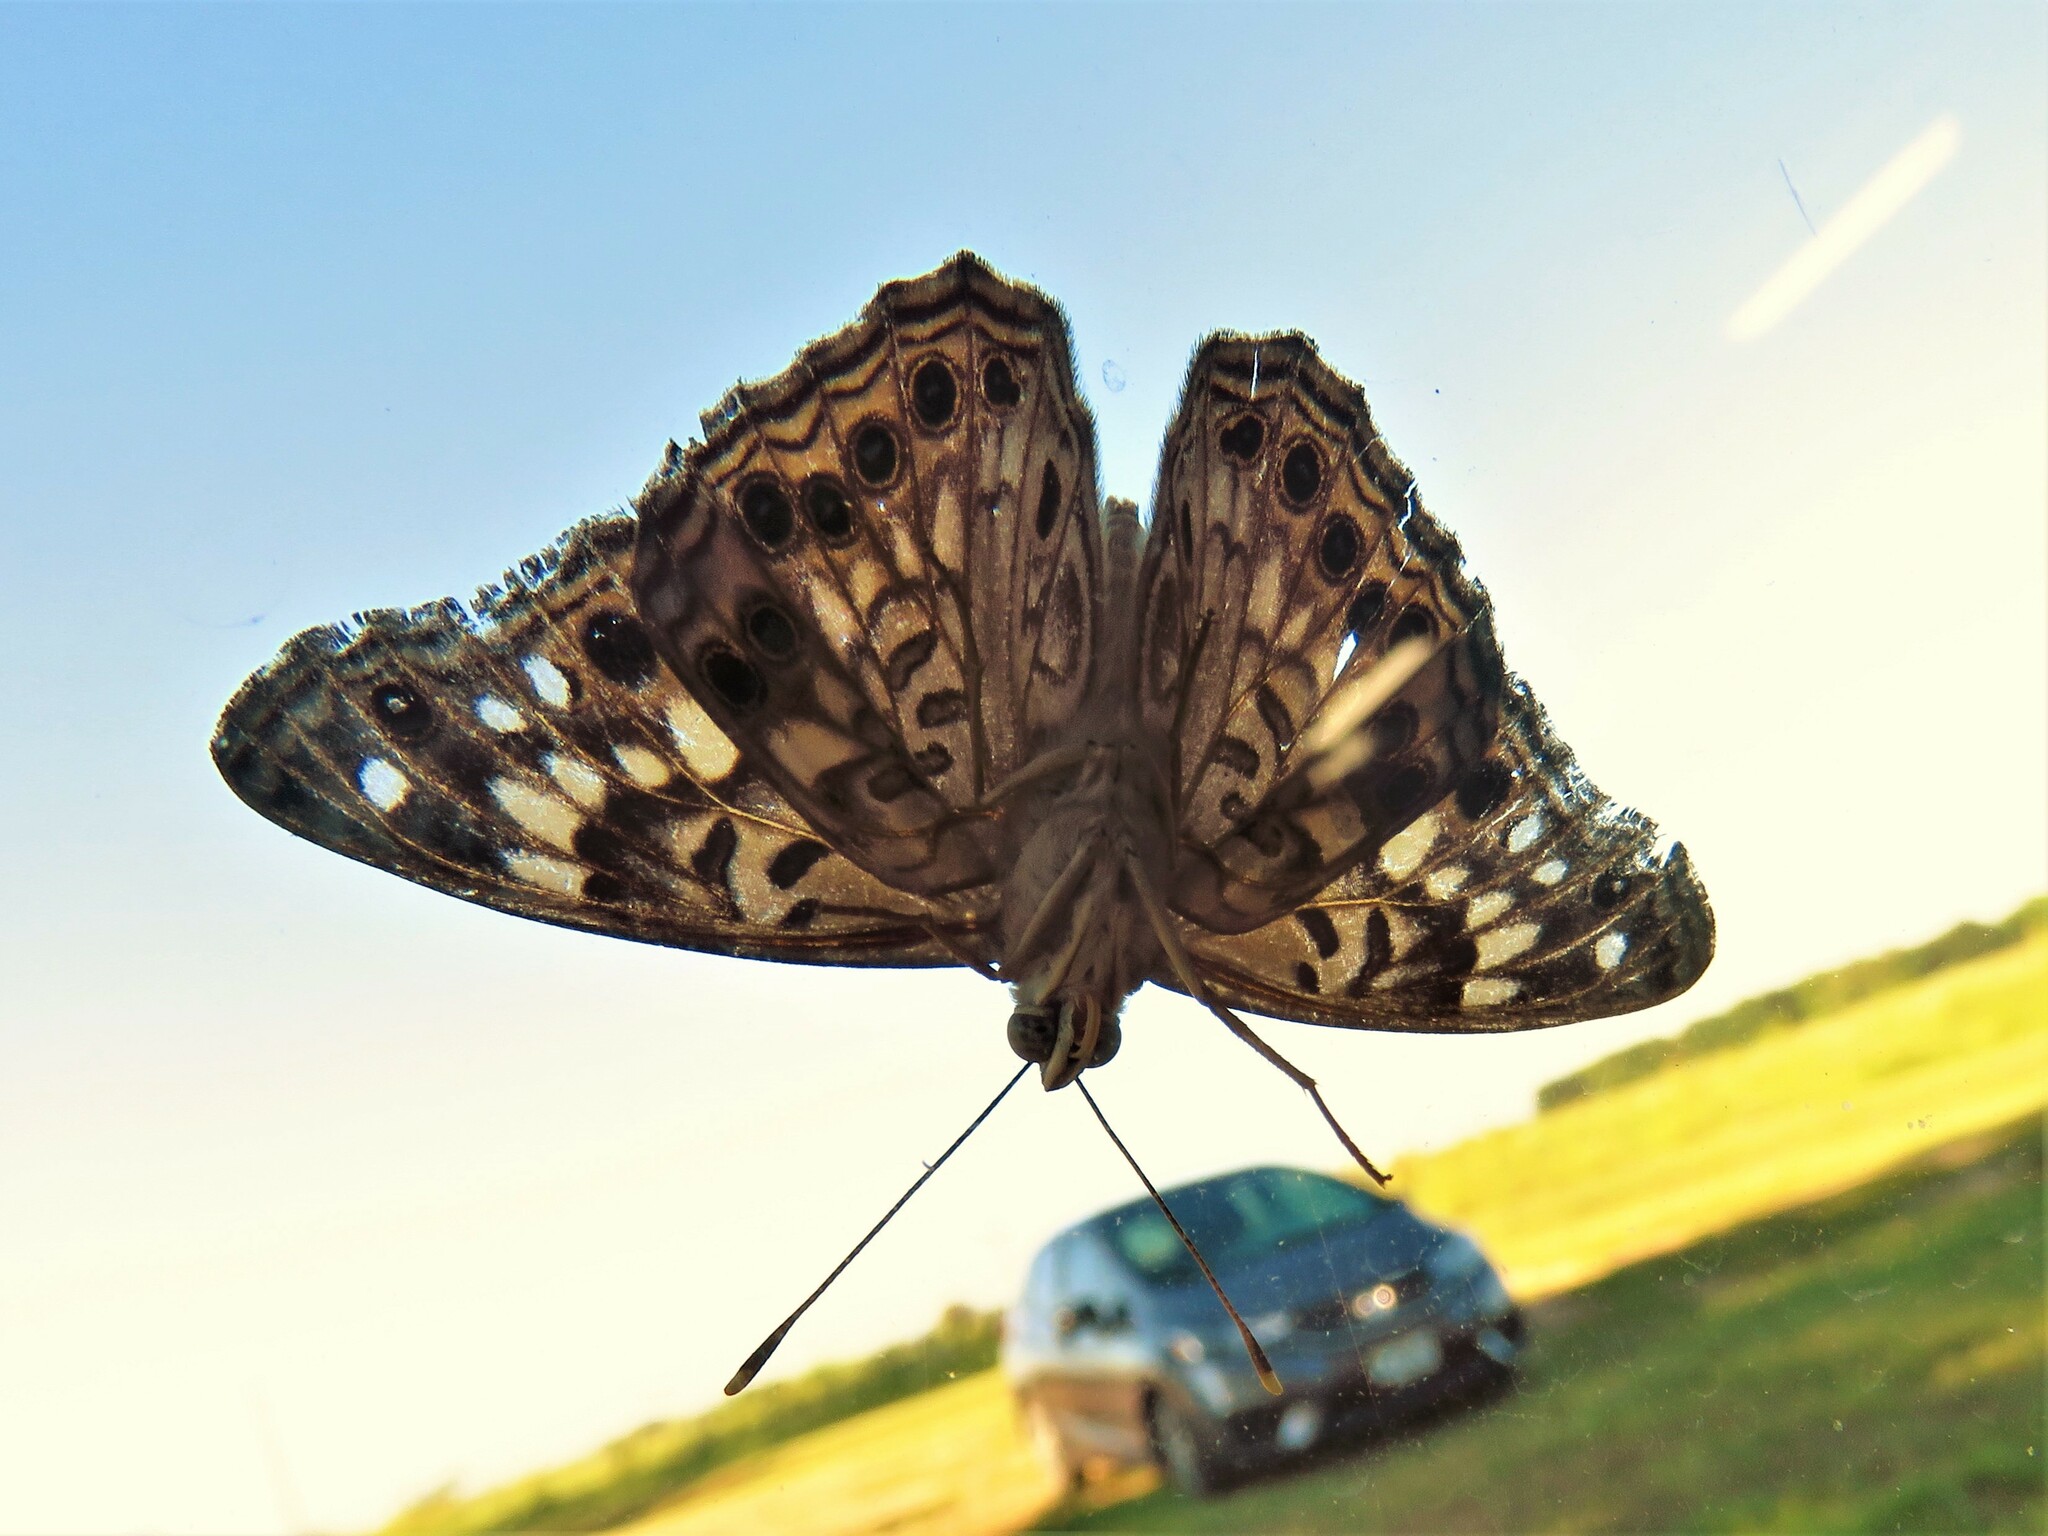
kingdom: Animalia
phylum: Arthropoda
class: Insecta
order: Lepidoptera
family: Nymphalidae
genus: Asterocampa
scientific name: Asterocampa celtis
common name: Hackberry emperor
